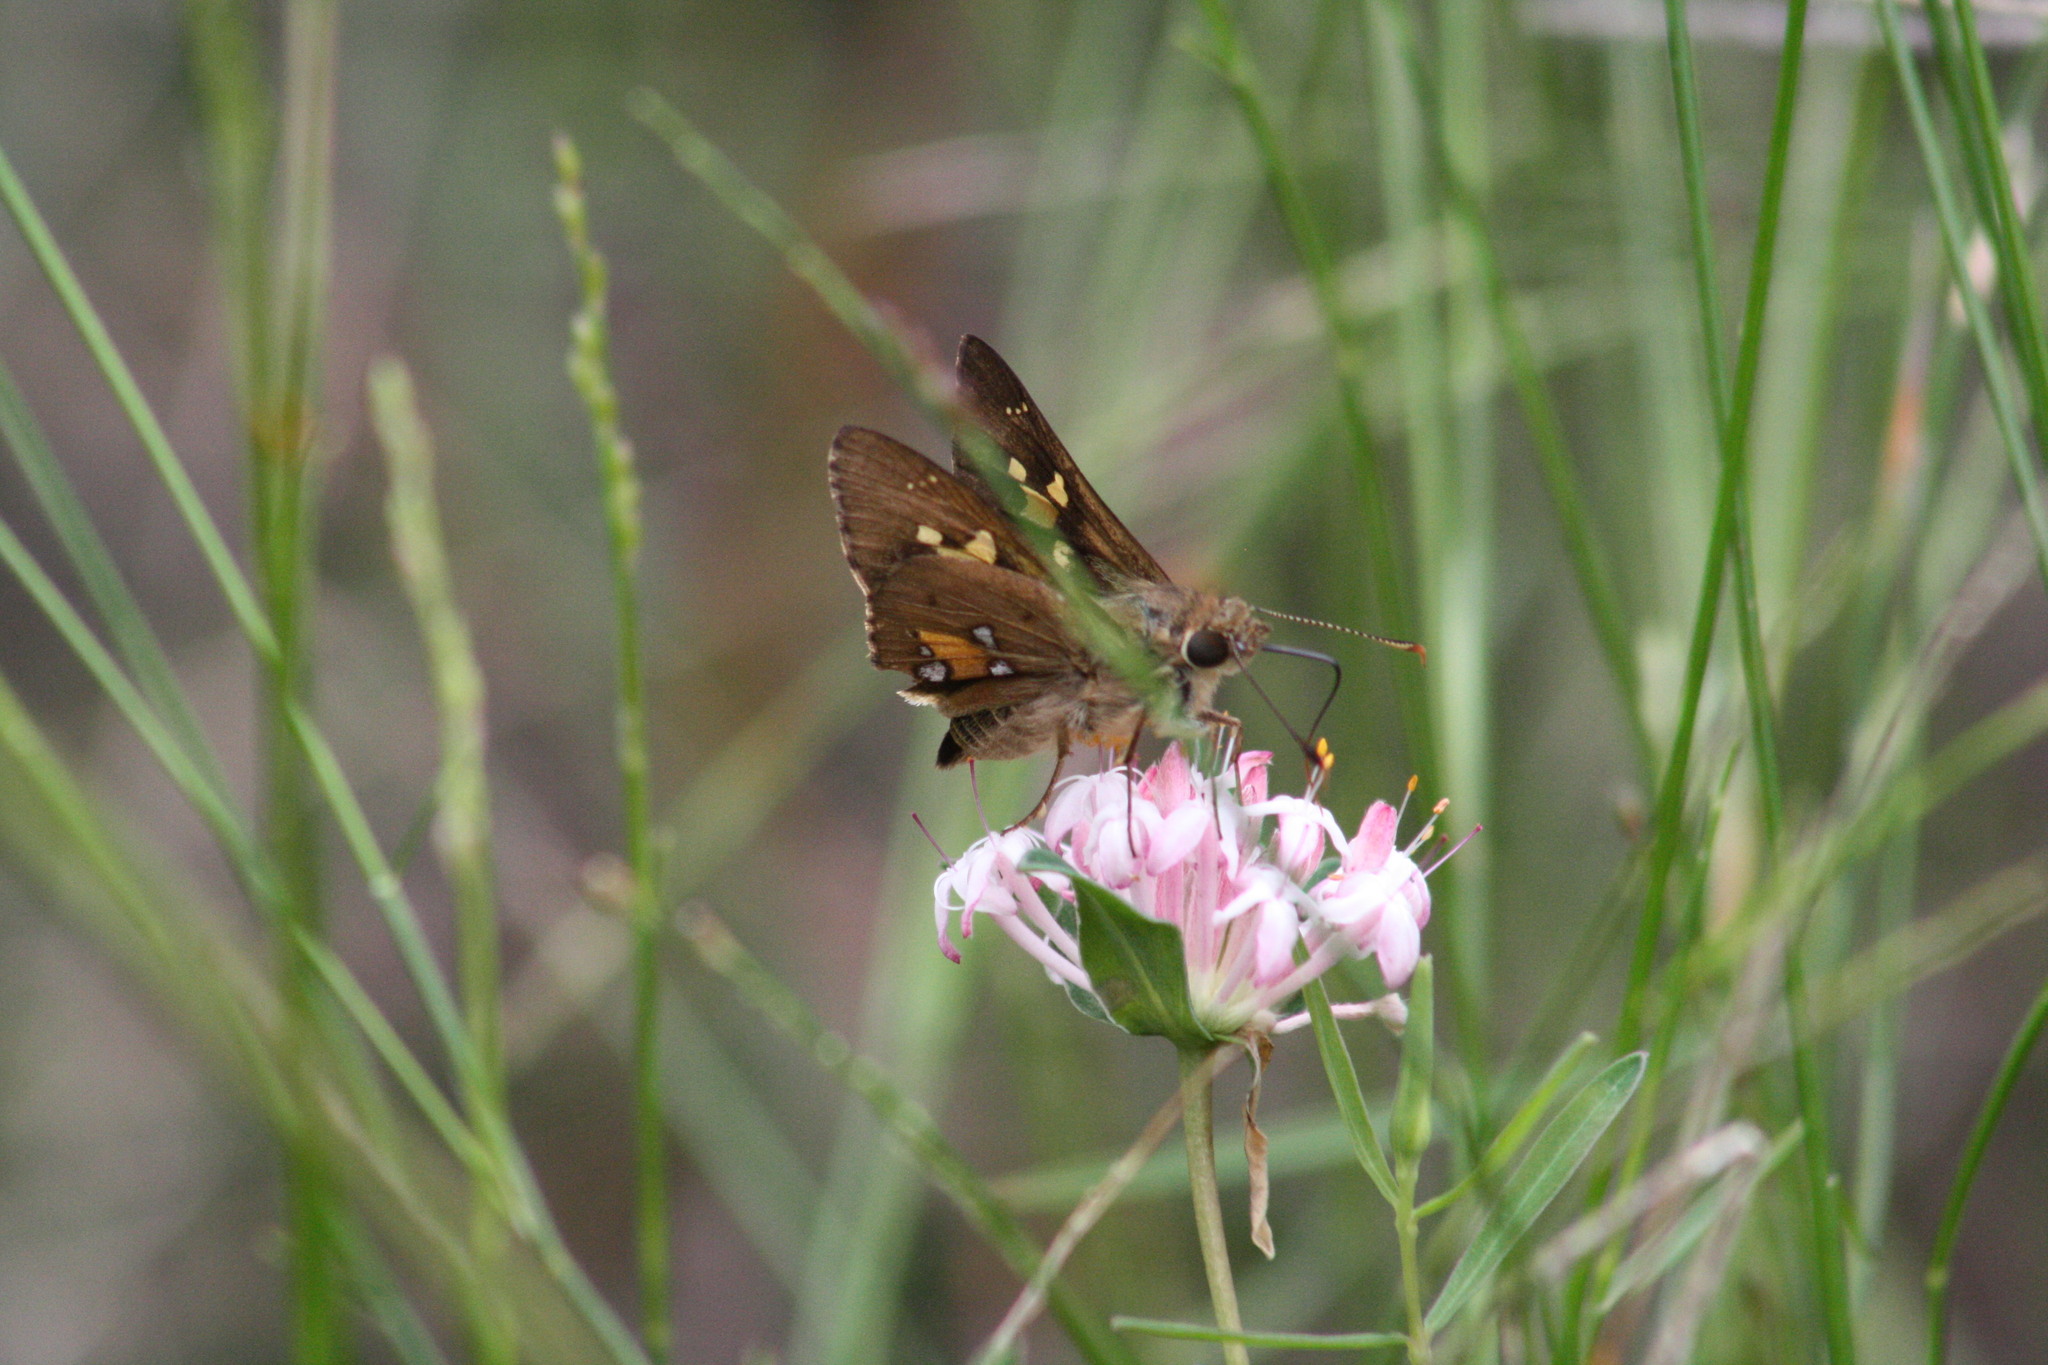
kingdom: Animalia
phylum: Arthropoda
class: Insecta
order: Lepidoptera
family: Hesperiidae
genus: Trapezites
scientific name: Trapezites praxedes
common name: Southern silver ochre
